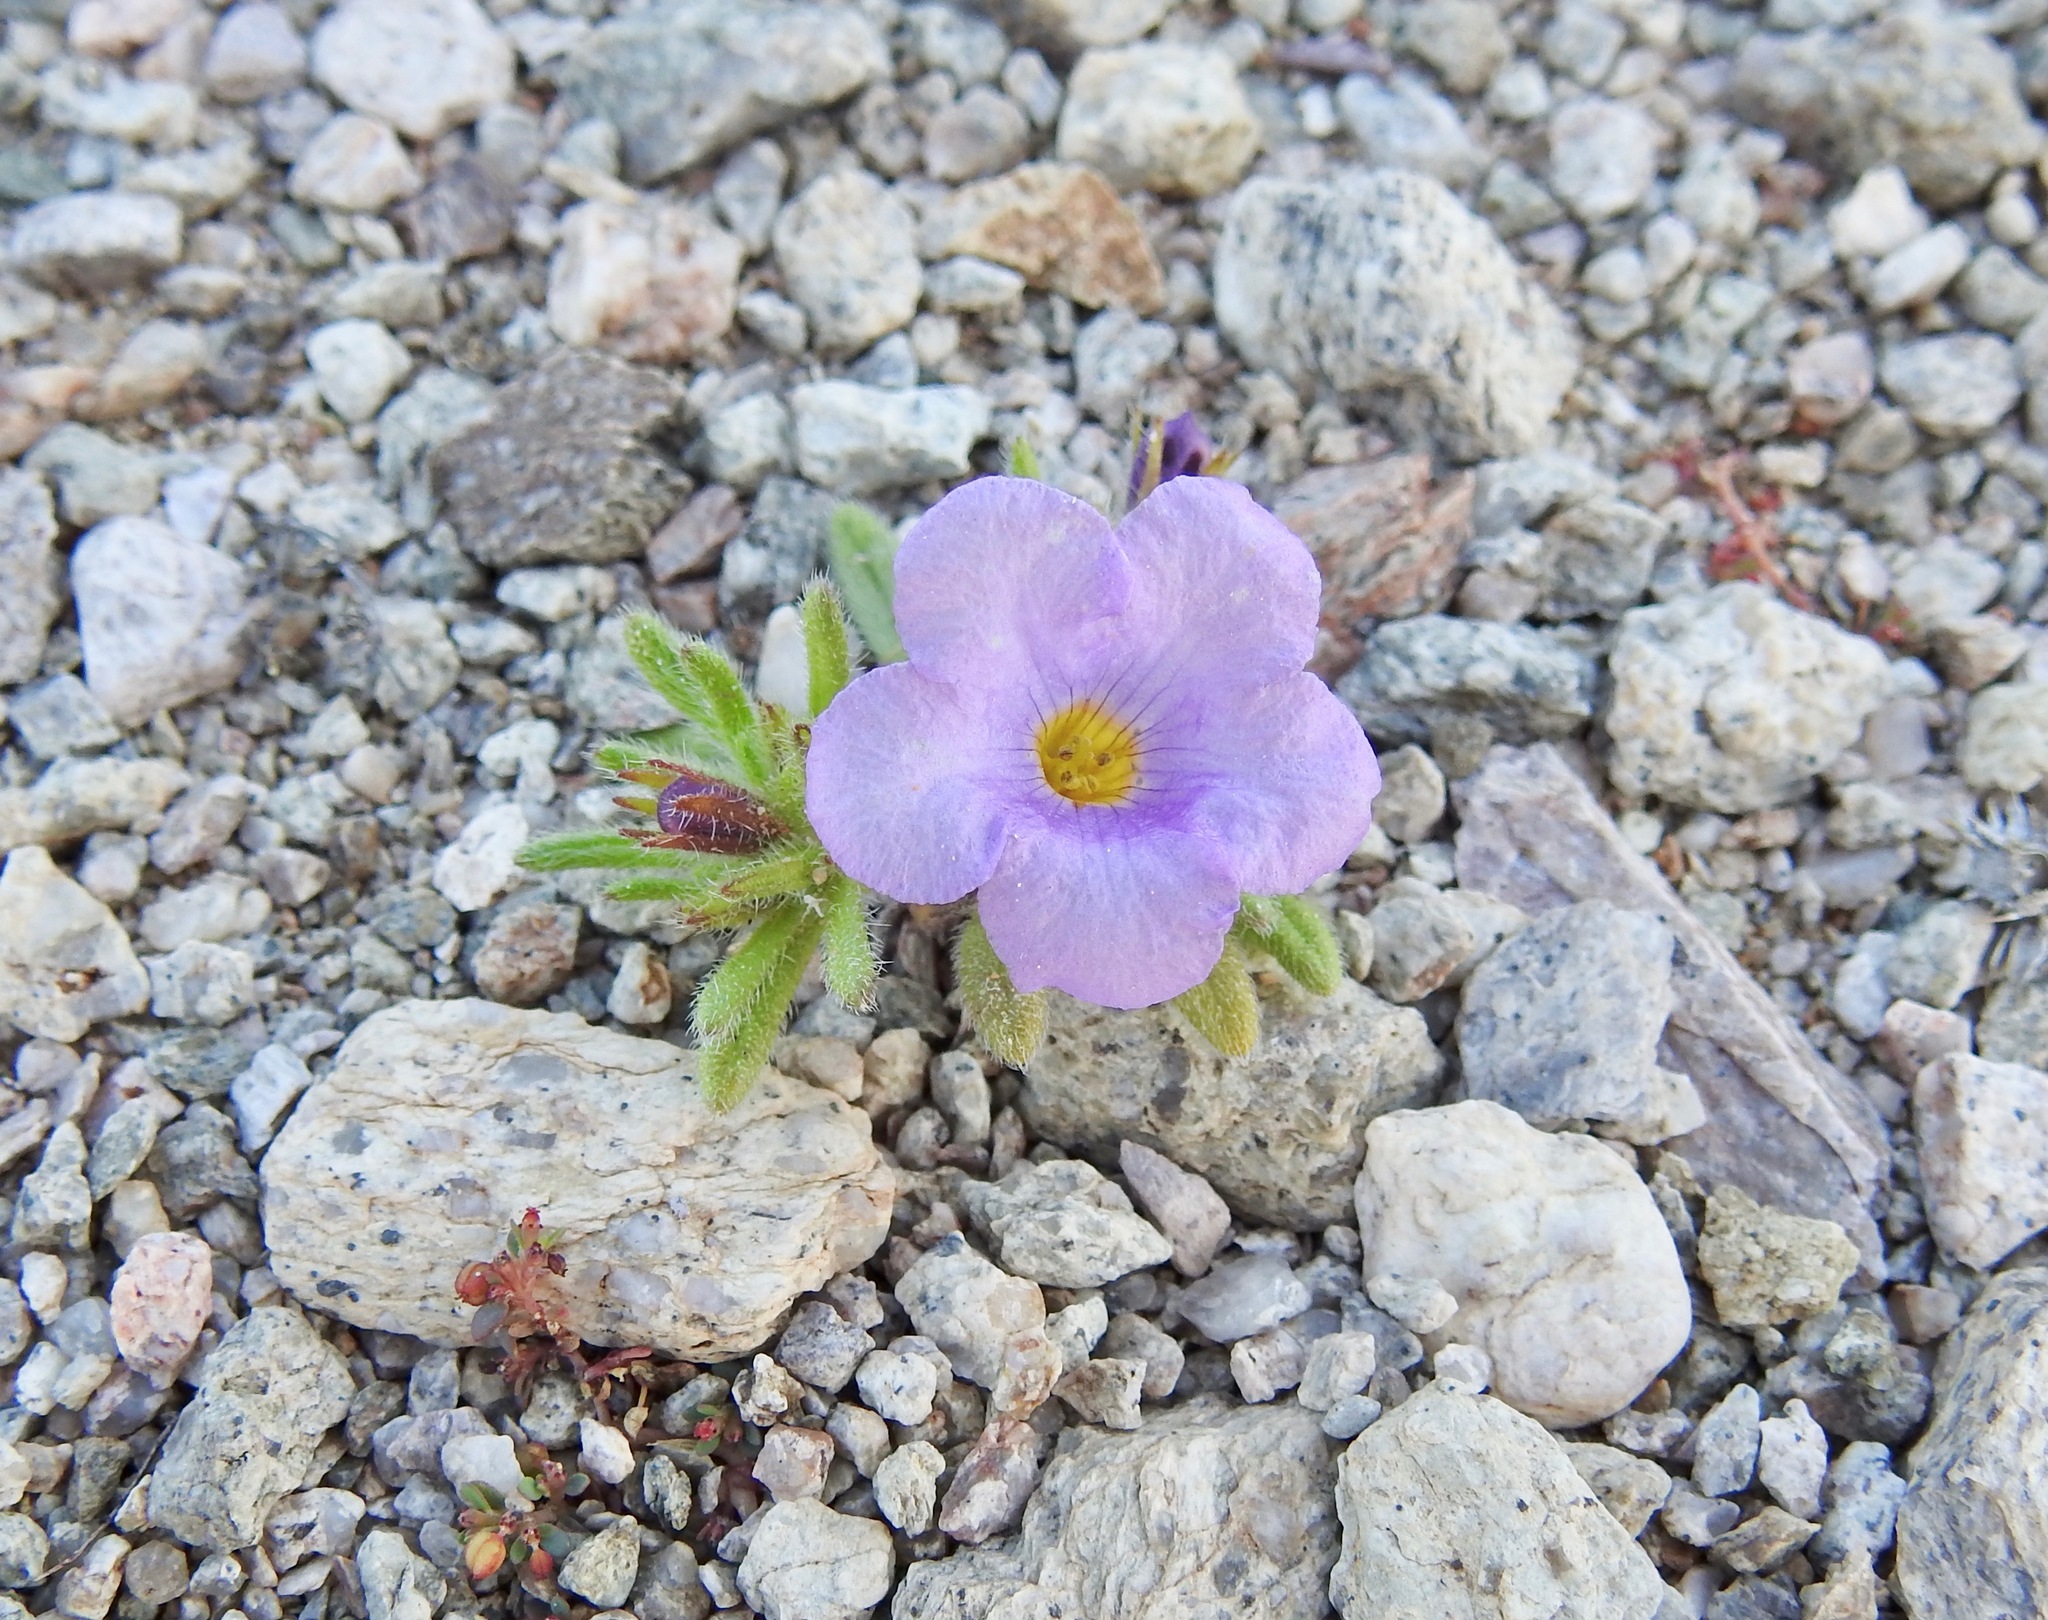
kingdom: Plantae
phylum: Tracheophyta
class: Magnoliopsida
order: Boraginales
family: Namaceae
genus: Nama
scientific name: Nama hispida
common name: Bristly nama
